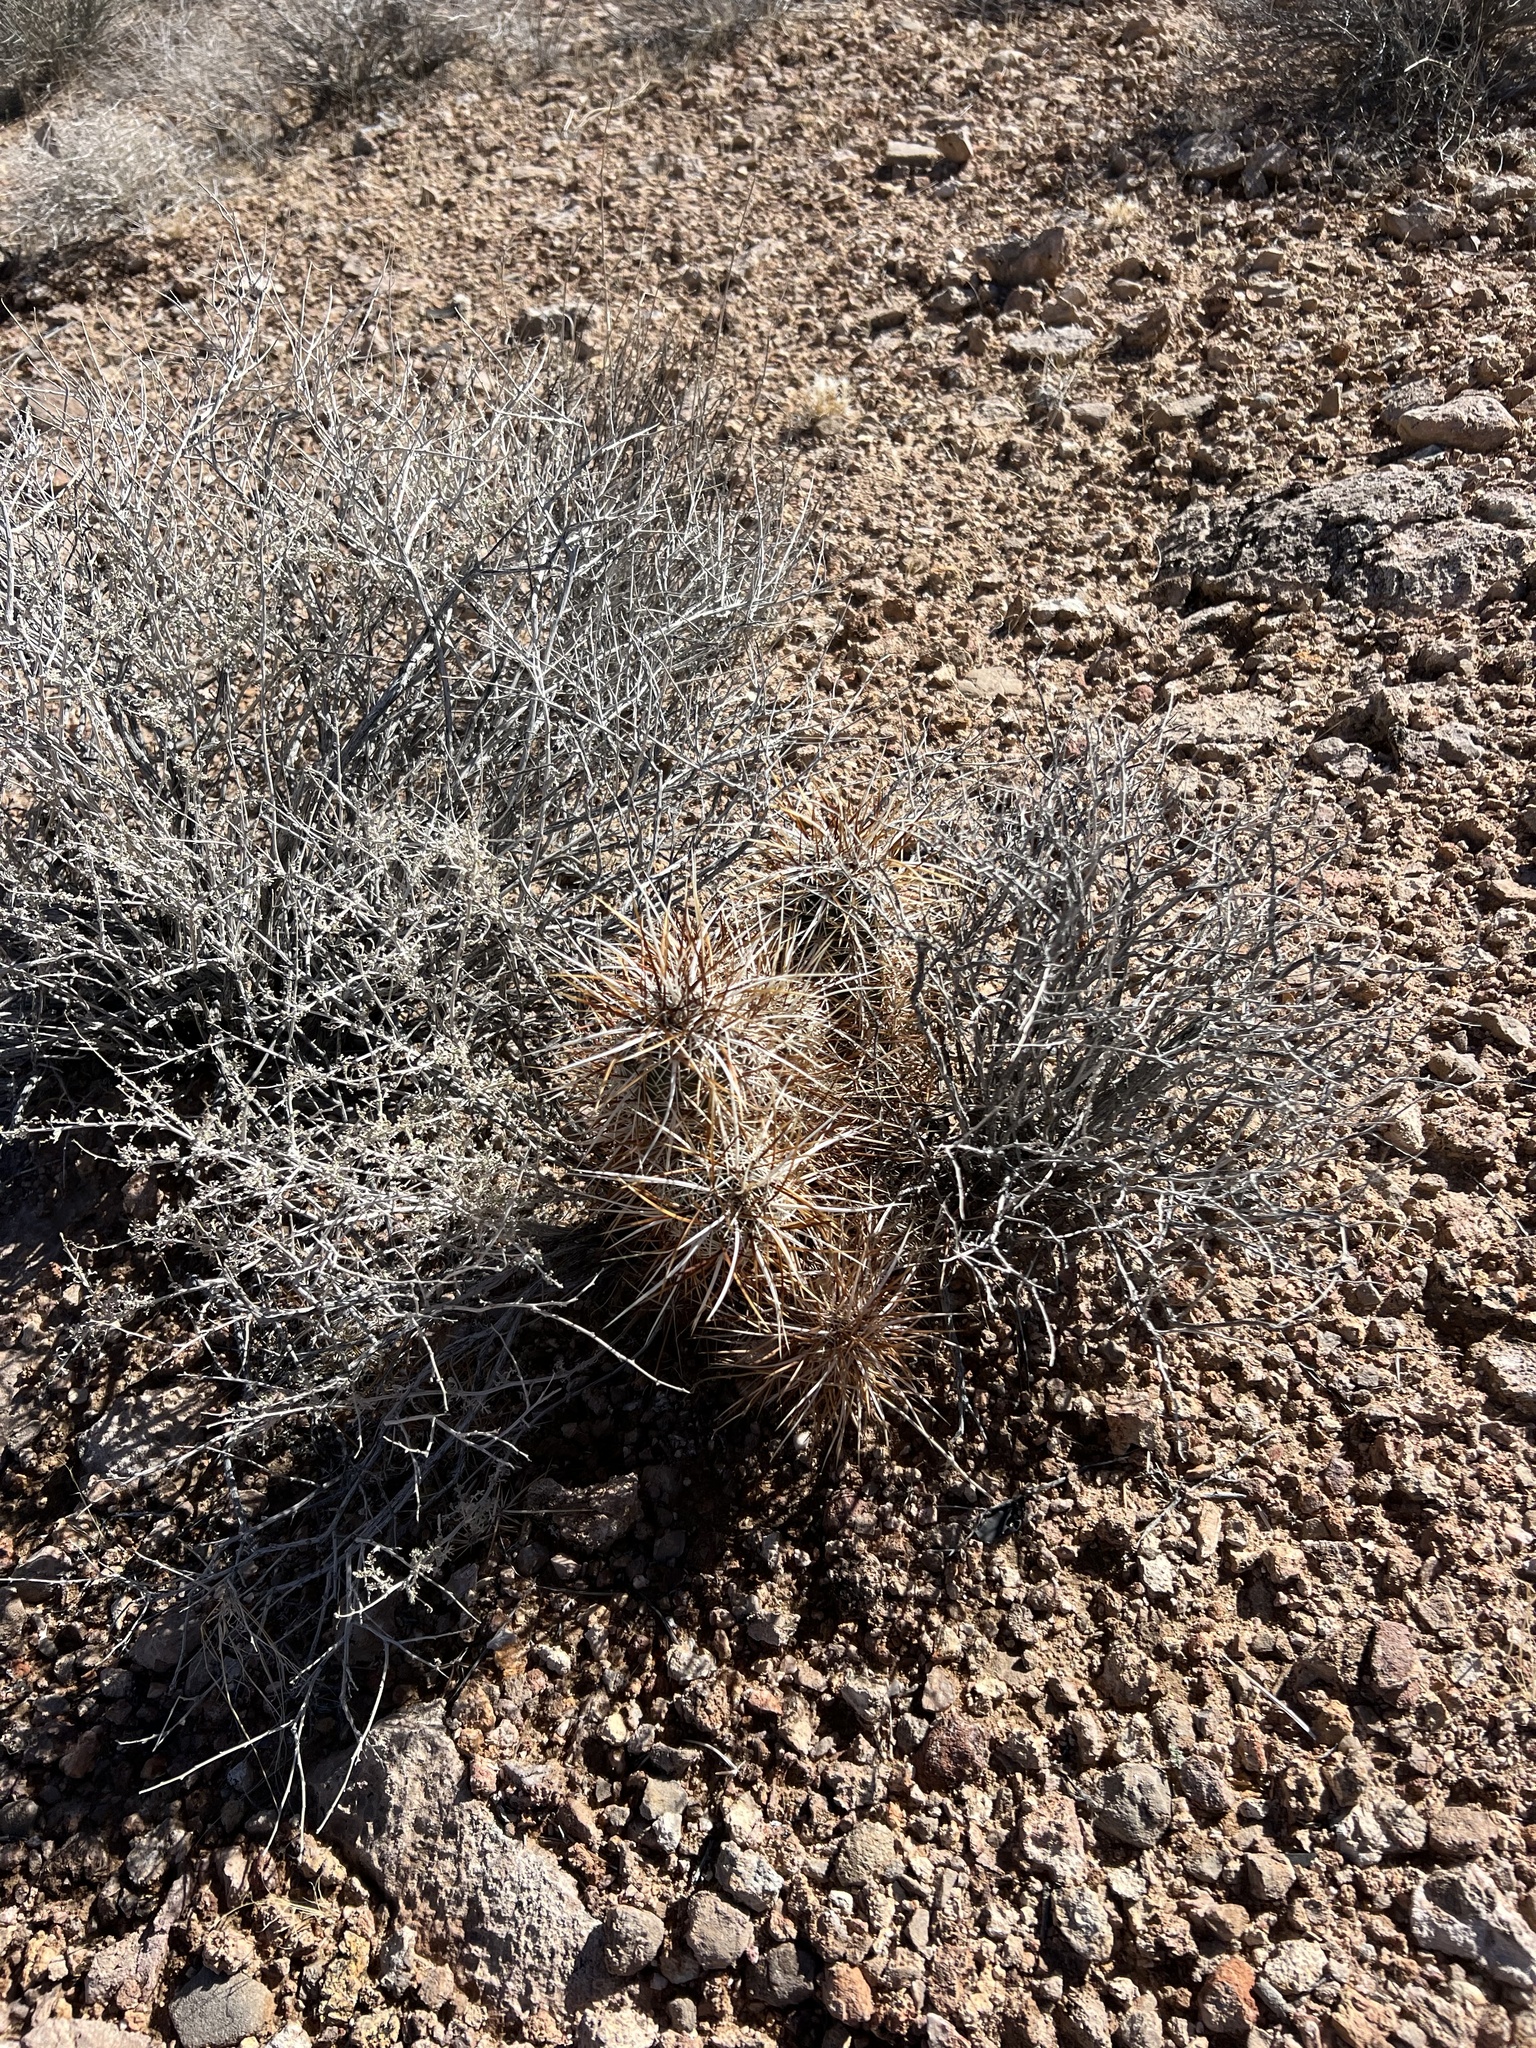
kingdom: Plantae
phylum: Tracheophyta
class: Magnoliopsida
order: Caryophyllales
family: Cactaceae
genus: Echinocereus
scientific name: Echinocereus engelmannii
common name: Engelmann's hedgehog cactus
